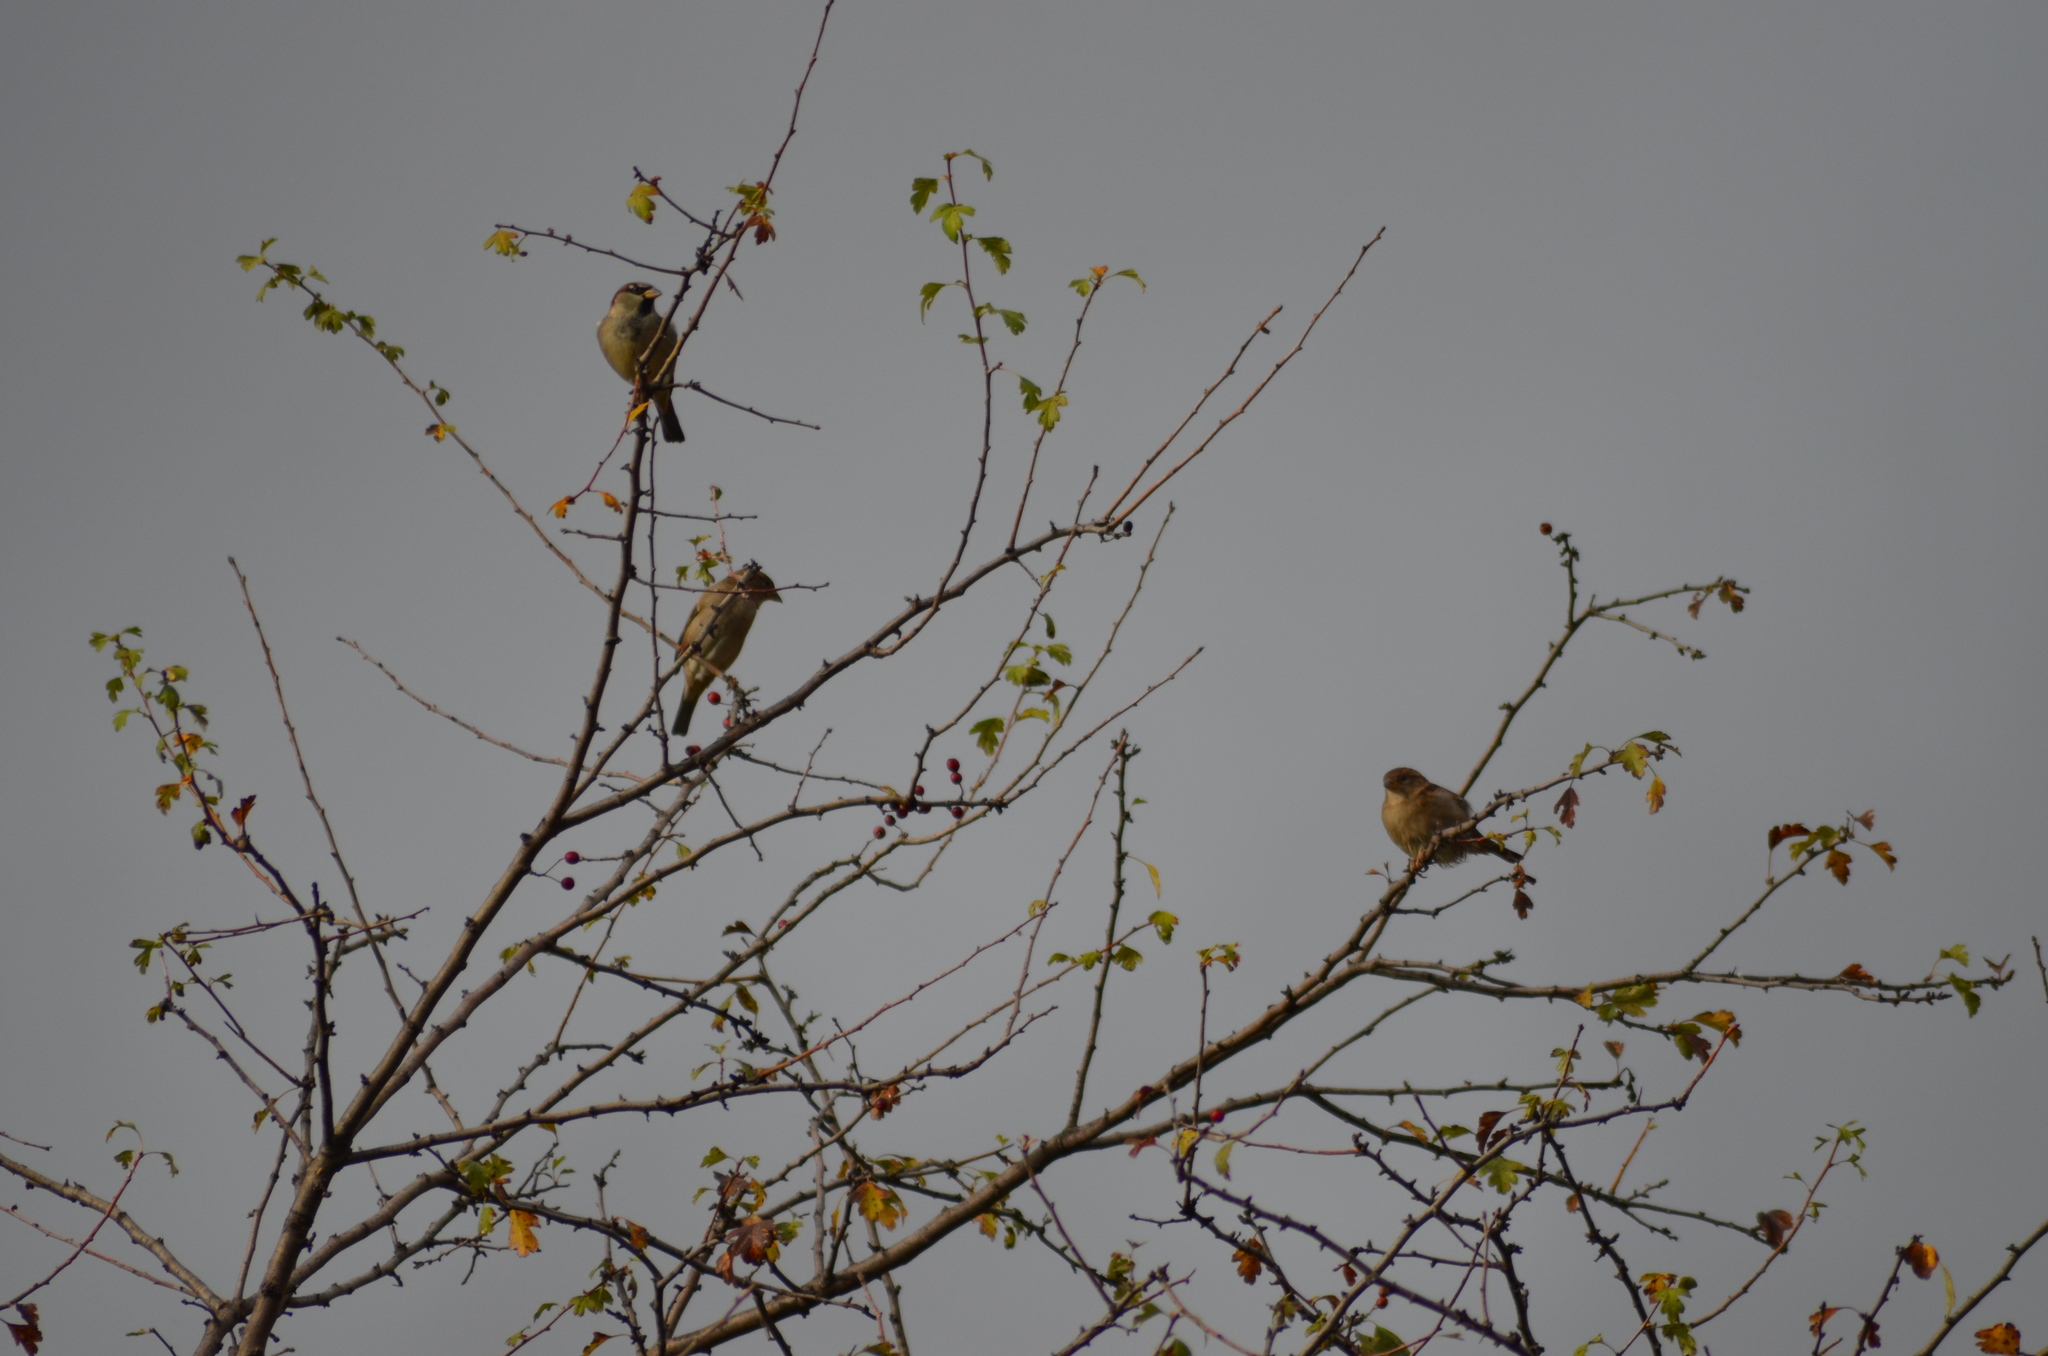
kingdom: Animalia
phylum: Chordata
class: Aves
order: Passeriformes
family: Passeridae
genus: Passer
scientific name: Passer domesticus
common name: House sparrow
